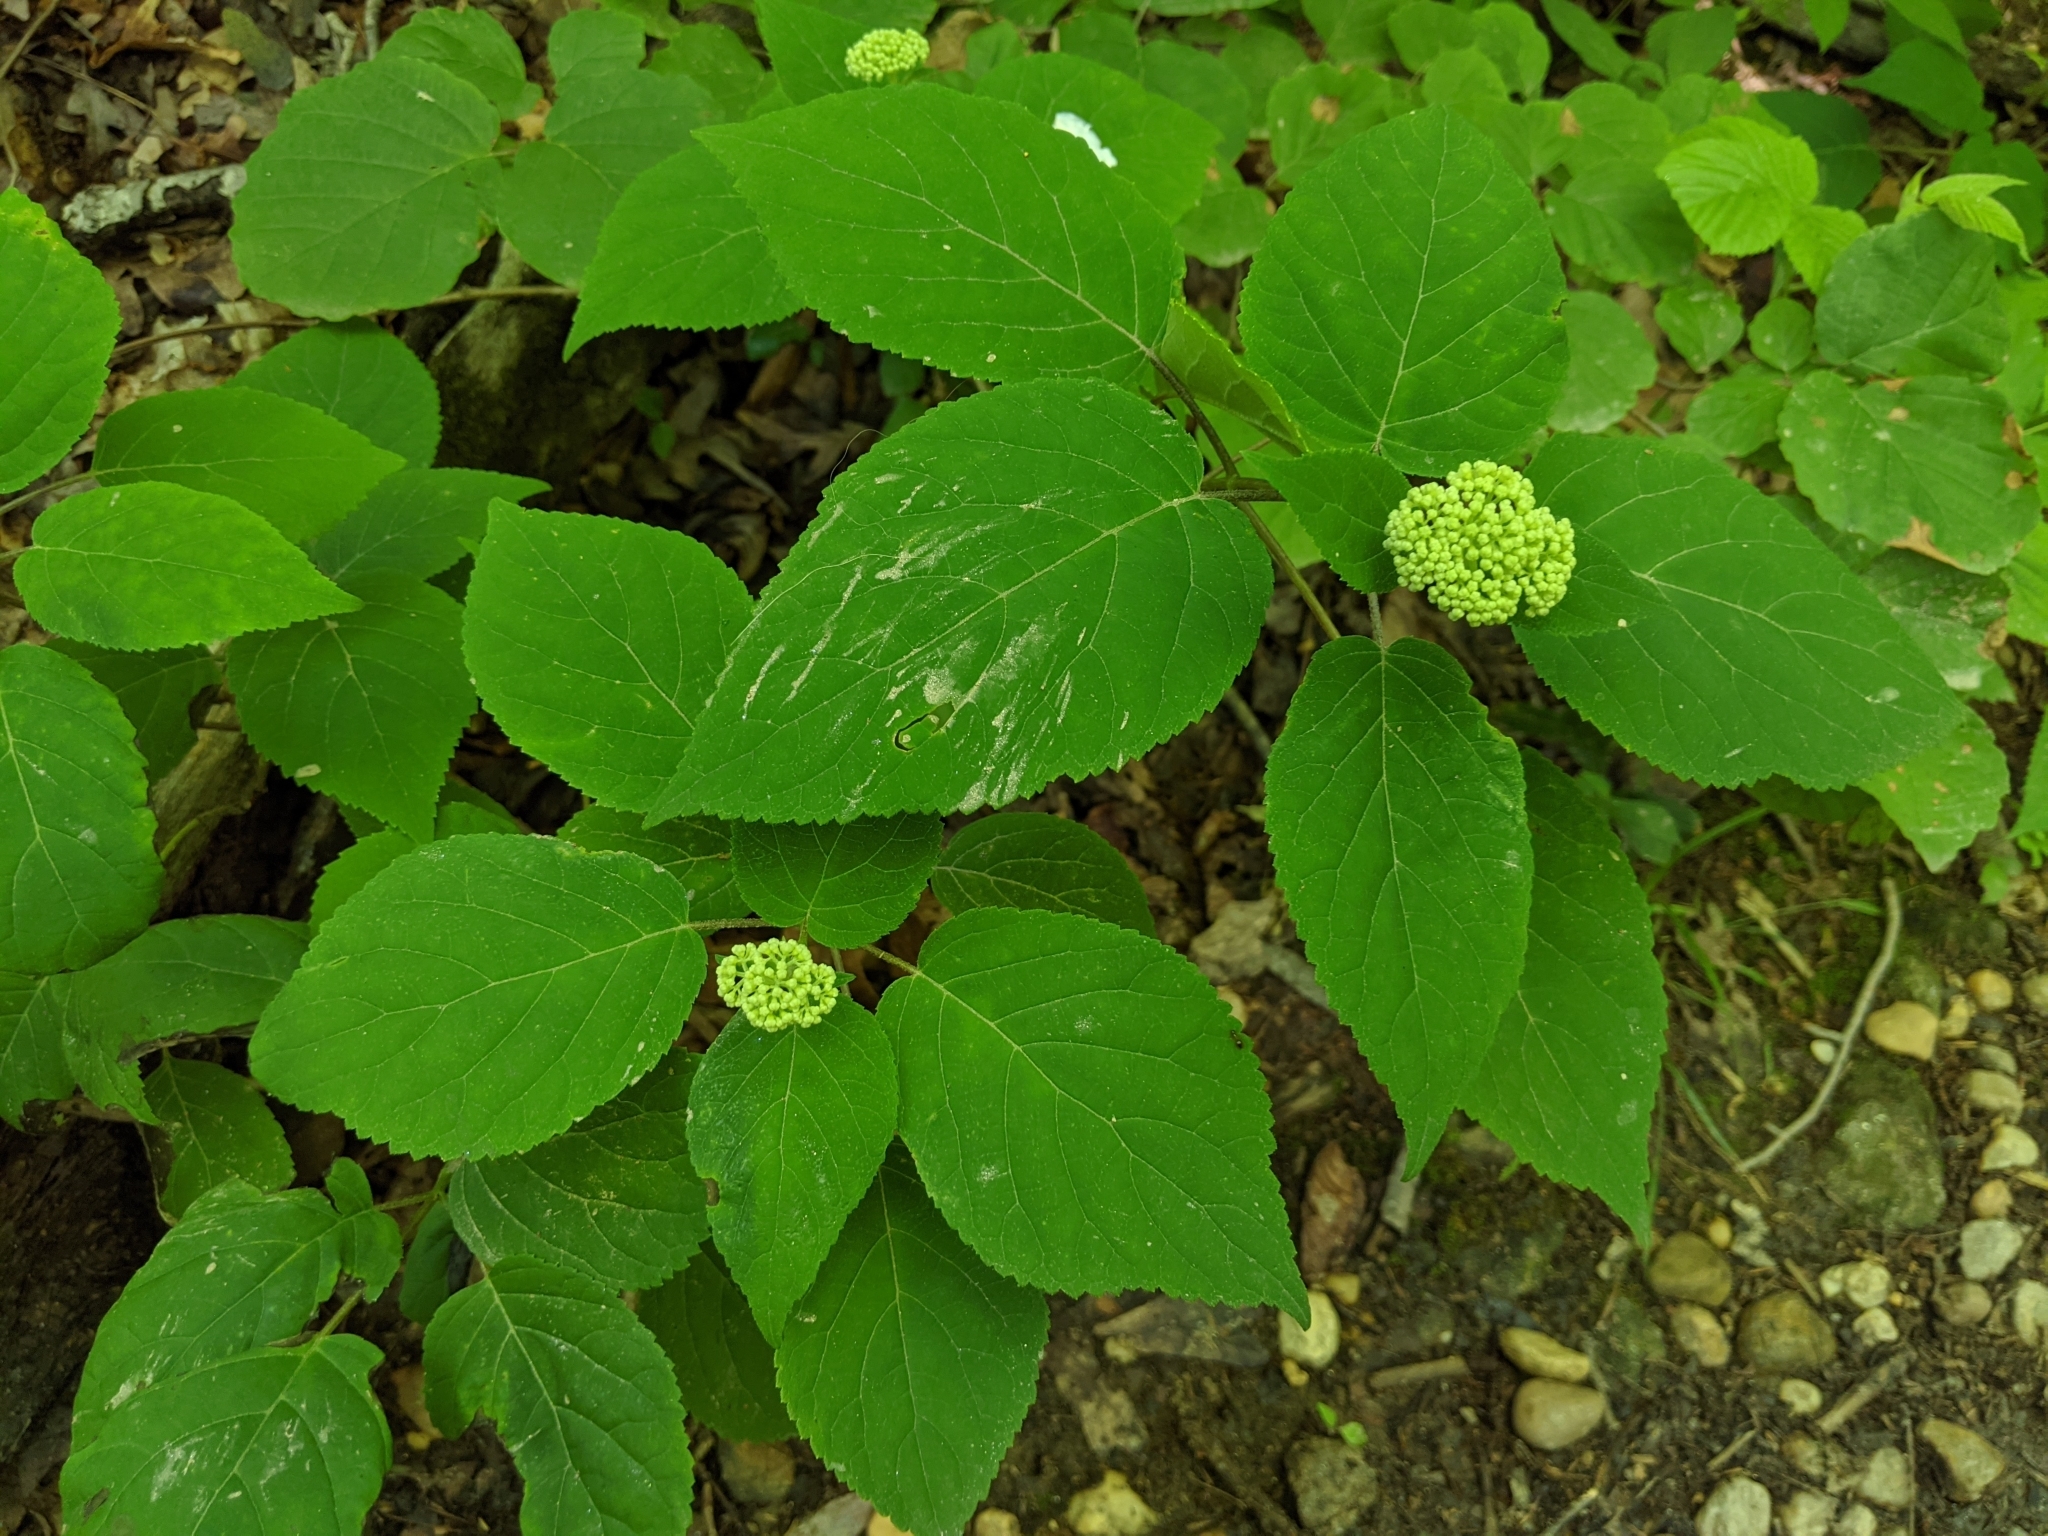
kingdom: Plantae
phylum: Tracheophyta
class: Magnoliopsida
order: Cornales
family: Hydrangeaceae
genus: Hydrangea
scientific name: Hydrangea arborescens
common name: Sevenbark
